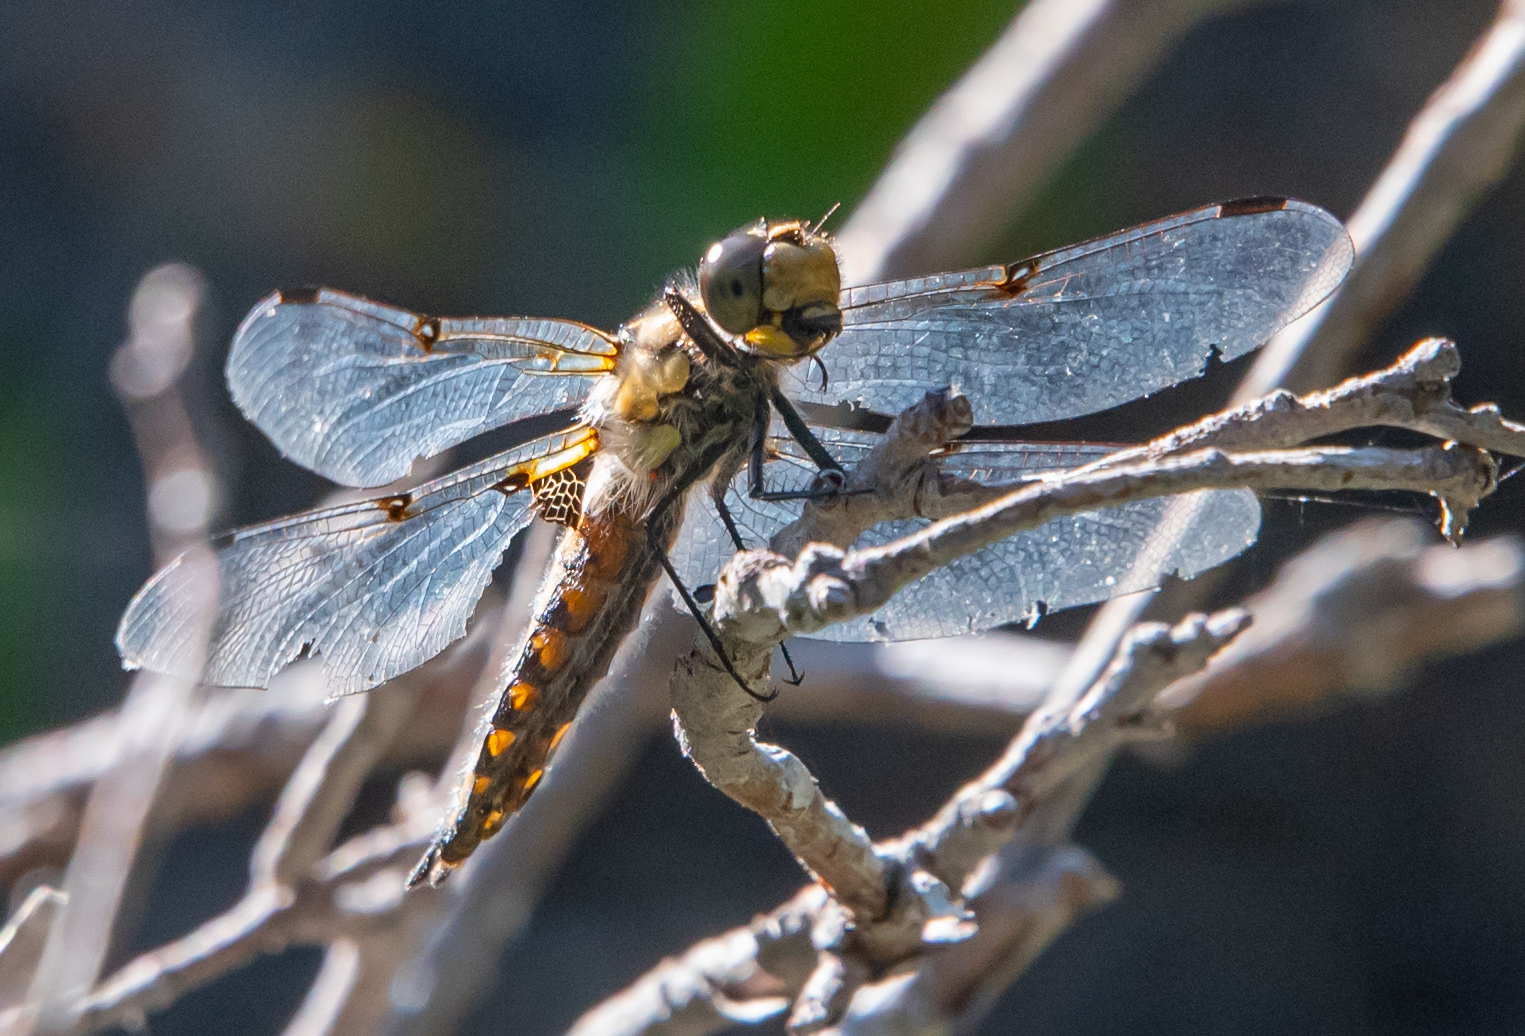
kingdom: Animalia
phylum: Arthropoda
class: Insecta
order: Odonata
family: Libellulidae
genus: Libellula
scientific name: Libellula quadrimaculata
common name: Four-spotted chaser
